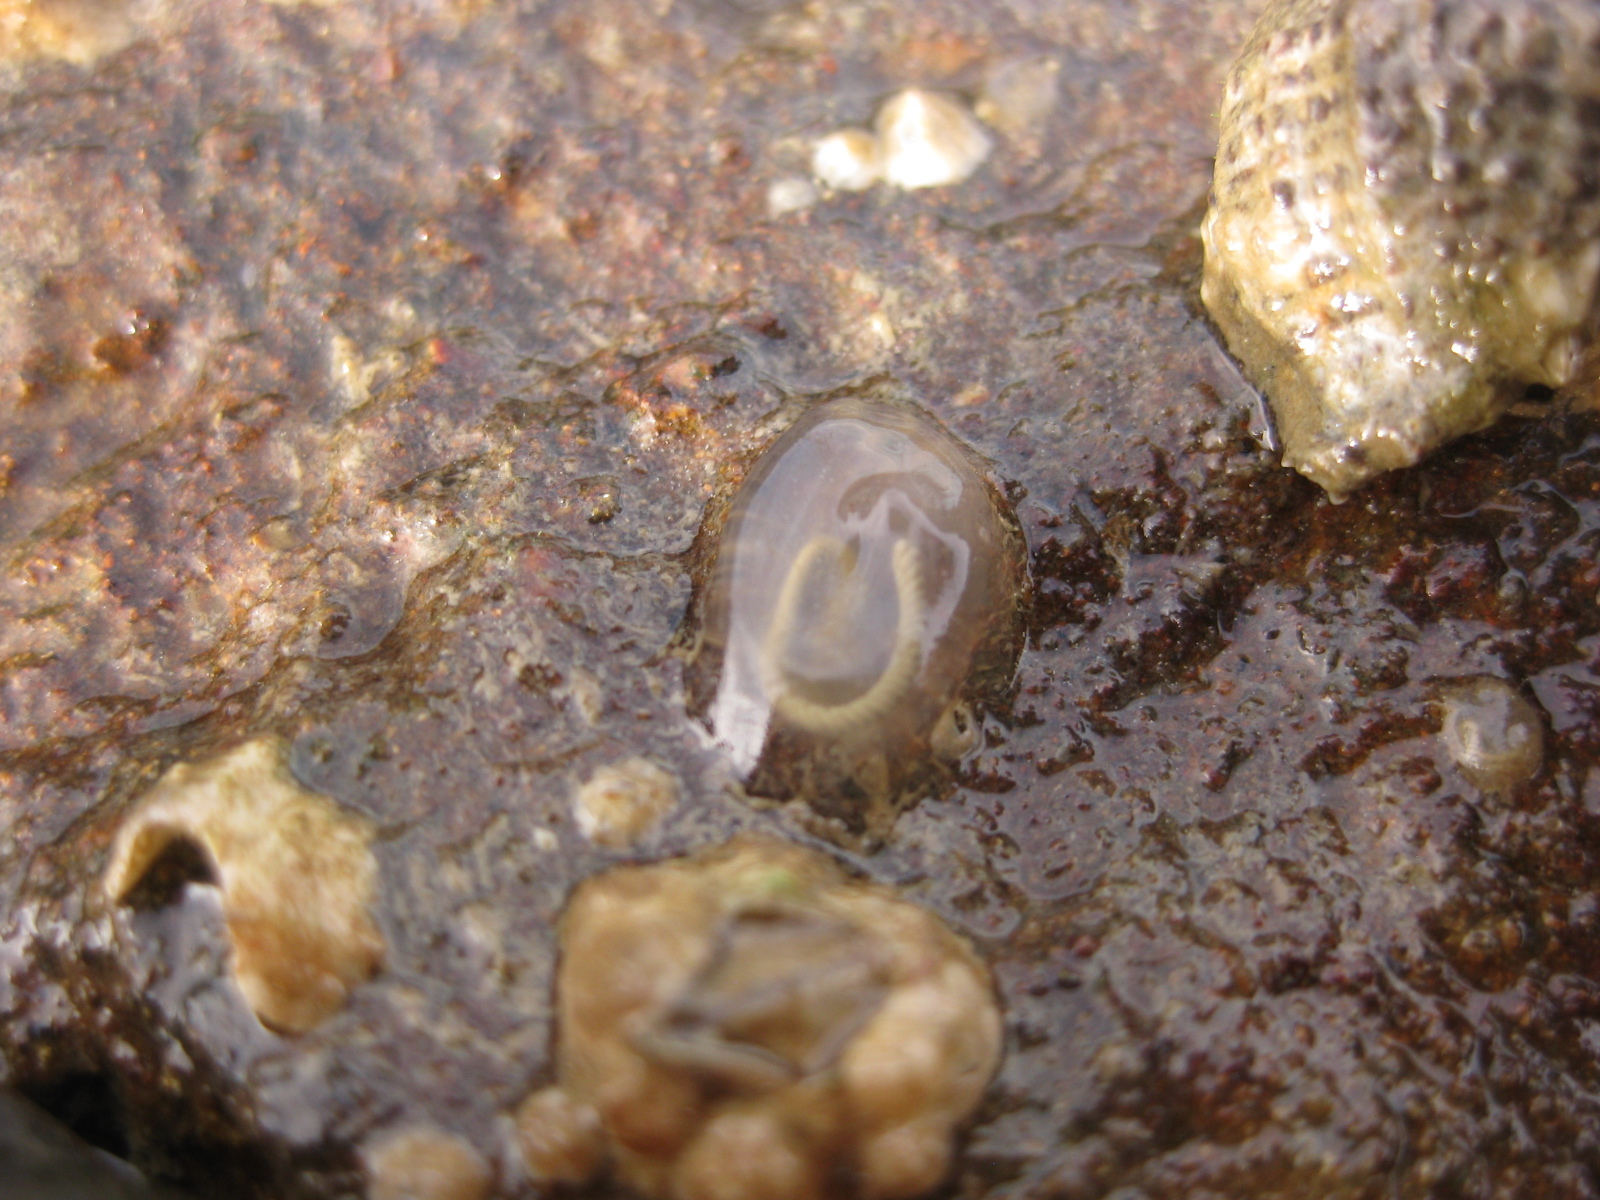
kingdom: Animalia
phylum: Chordata
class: Ascidiacea
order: Phlebobranchia
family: Agneziidae
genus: Agnezia
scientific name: Agnezia glaciata
